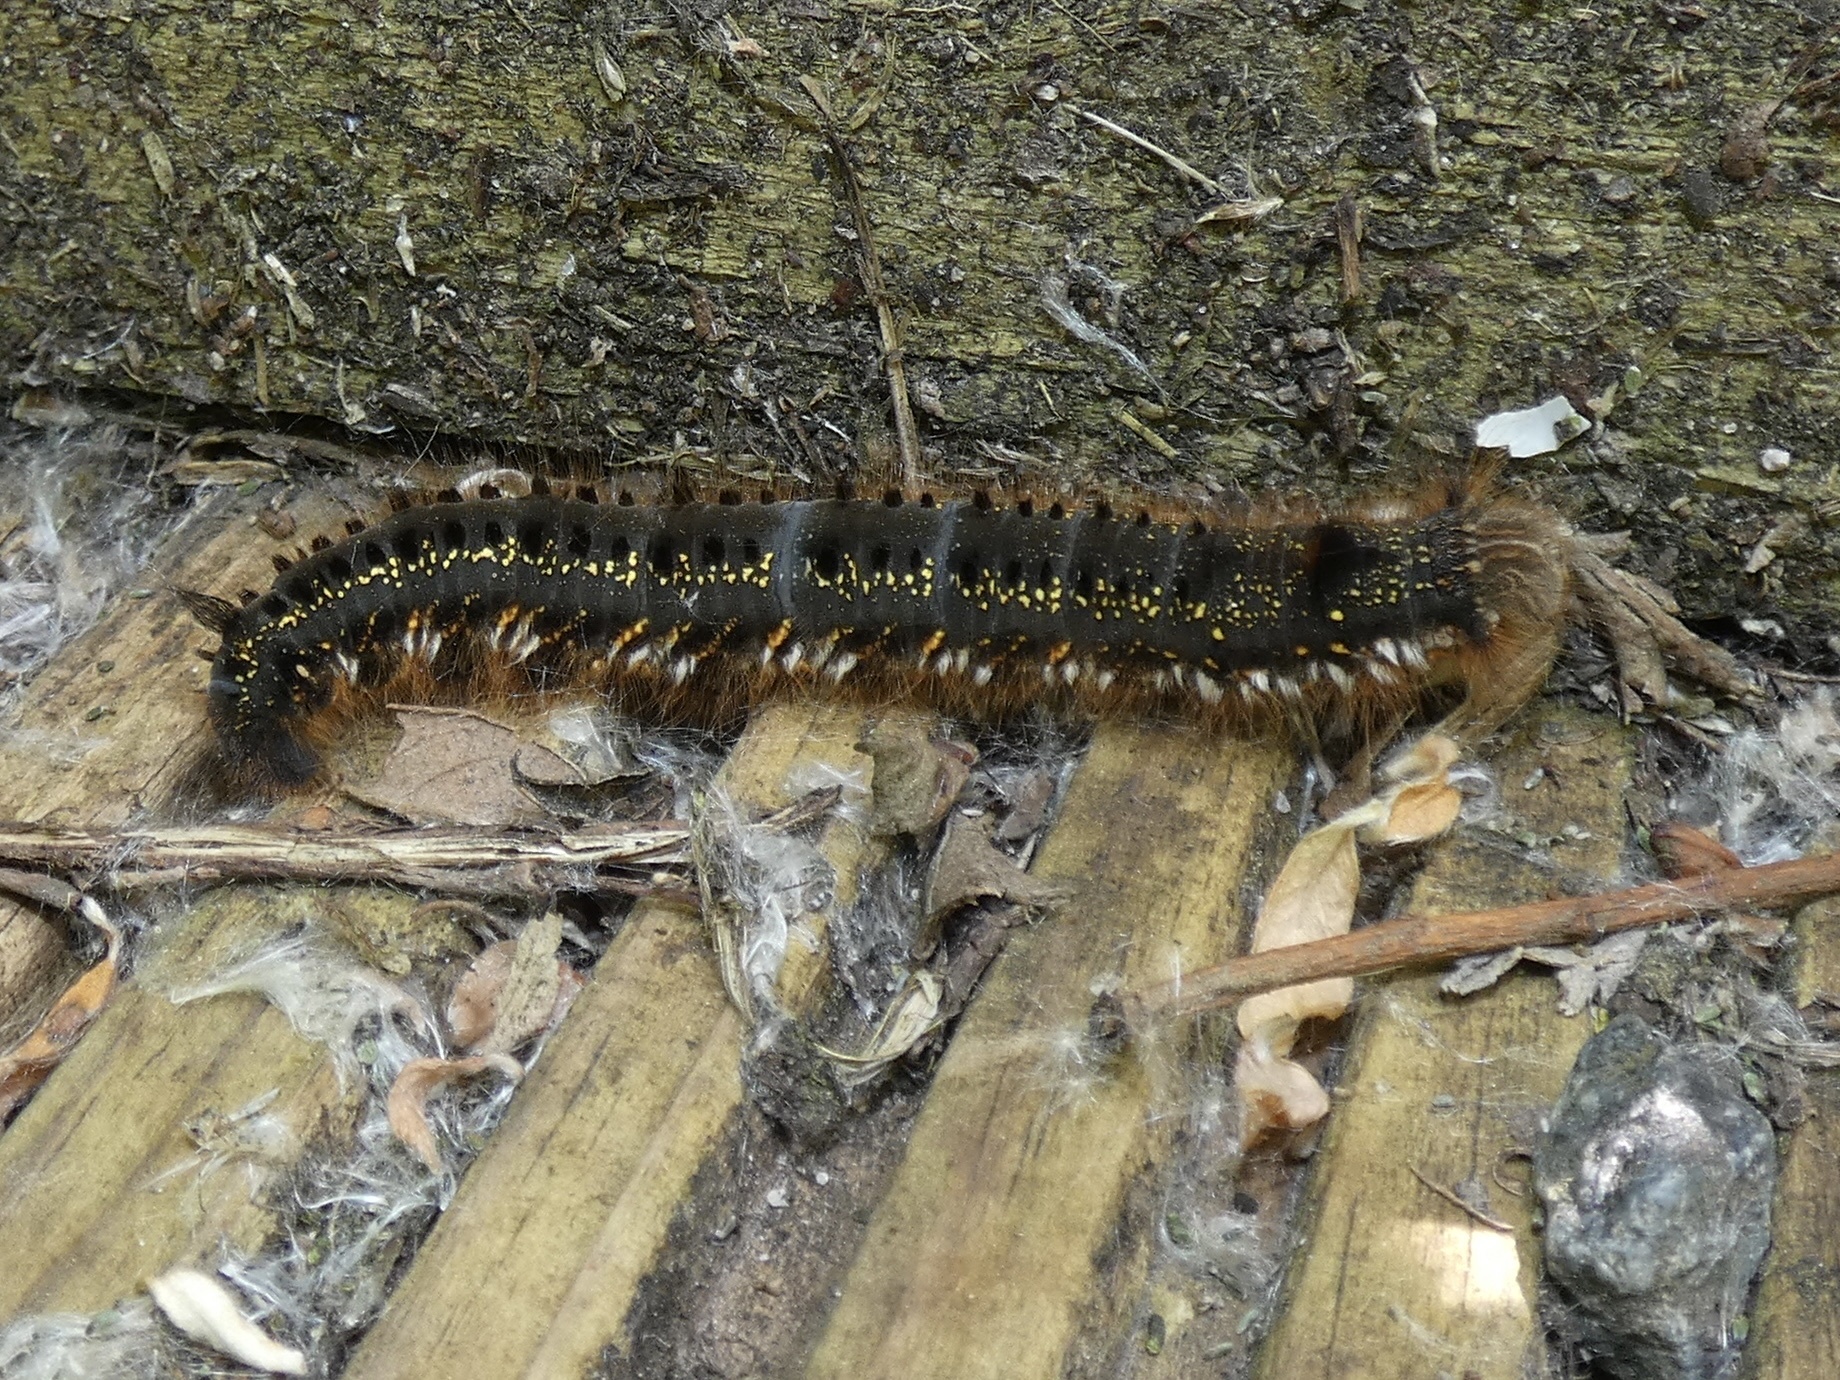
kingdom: Animalia
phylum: Arthropoda
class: Insecta
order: Lepidoptera
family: Lasiocampidae
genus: Euthrix
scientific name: Euthrix potatoria
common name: Drinker
